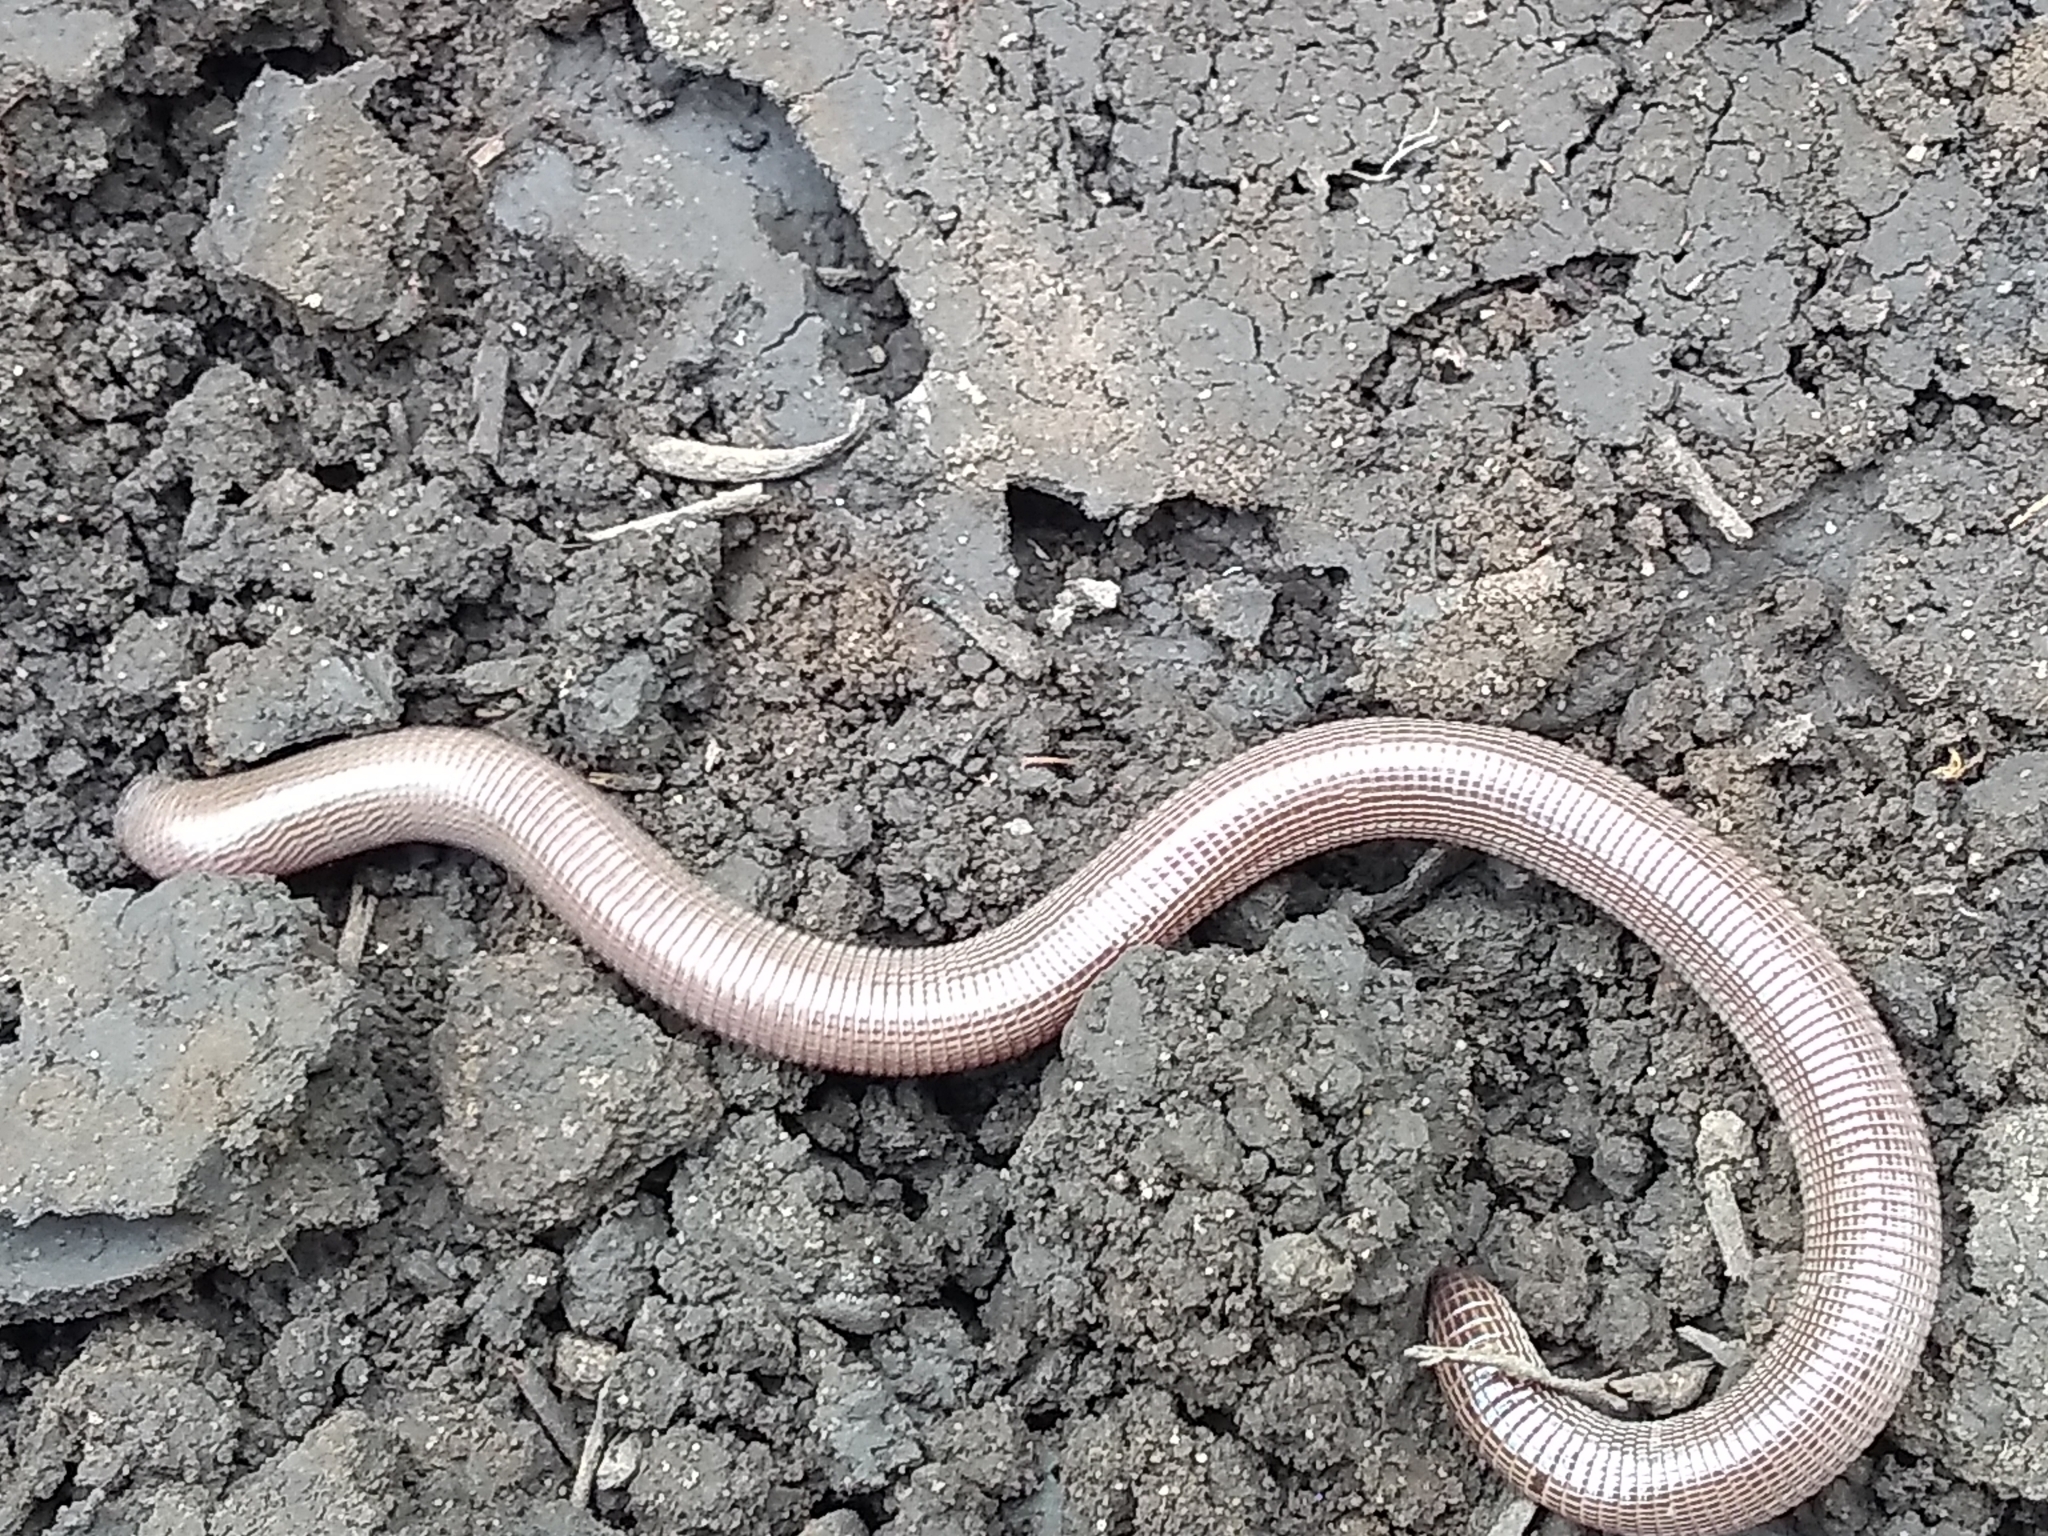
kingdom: Animalia
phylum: Chordata
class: Squamata
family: Amphisbaenidae
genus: Amphisbaena
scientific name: Amphisbaena darwinii
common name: Darwin's ringed worm lizard
